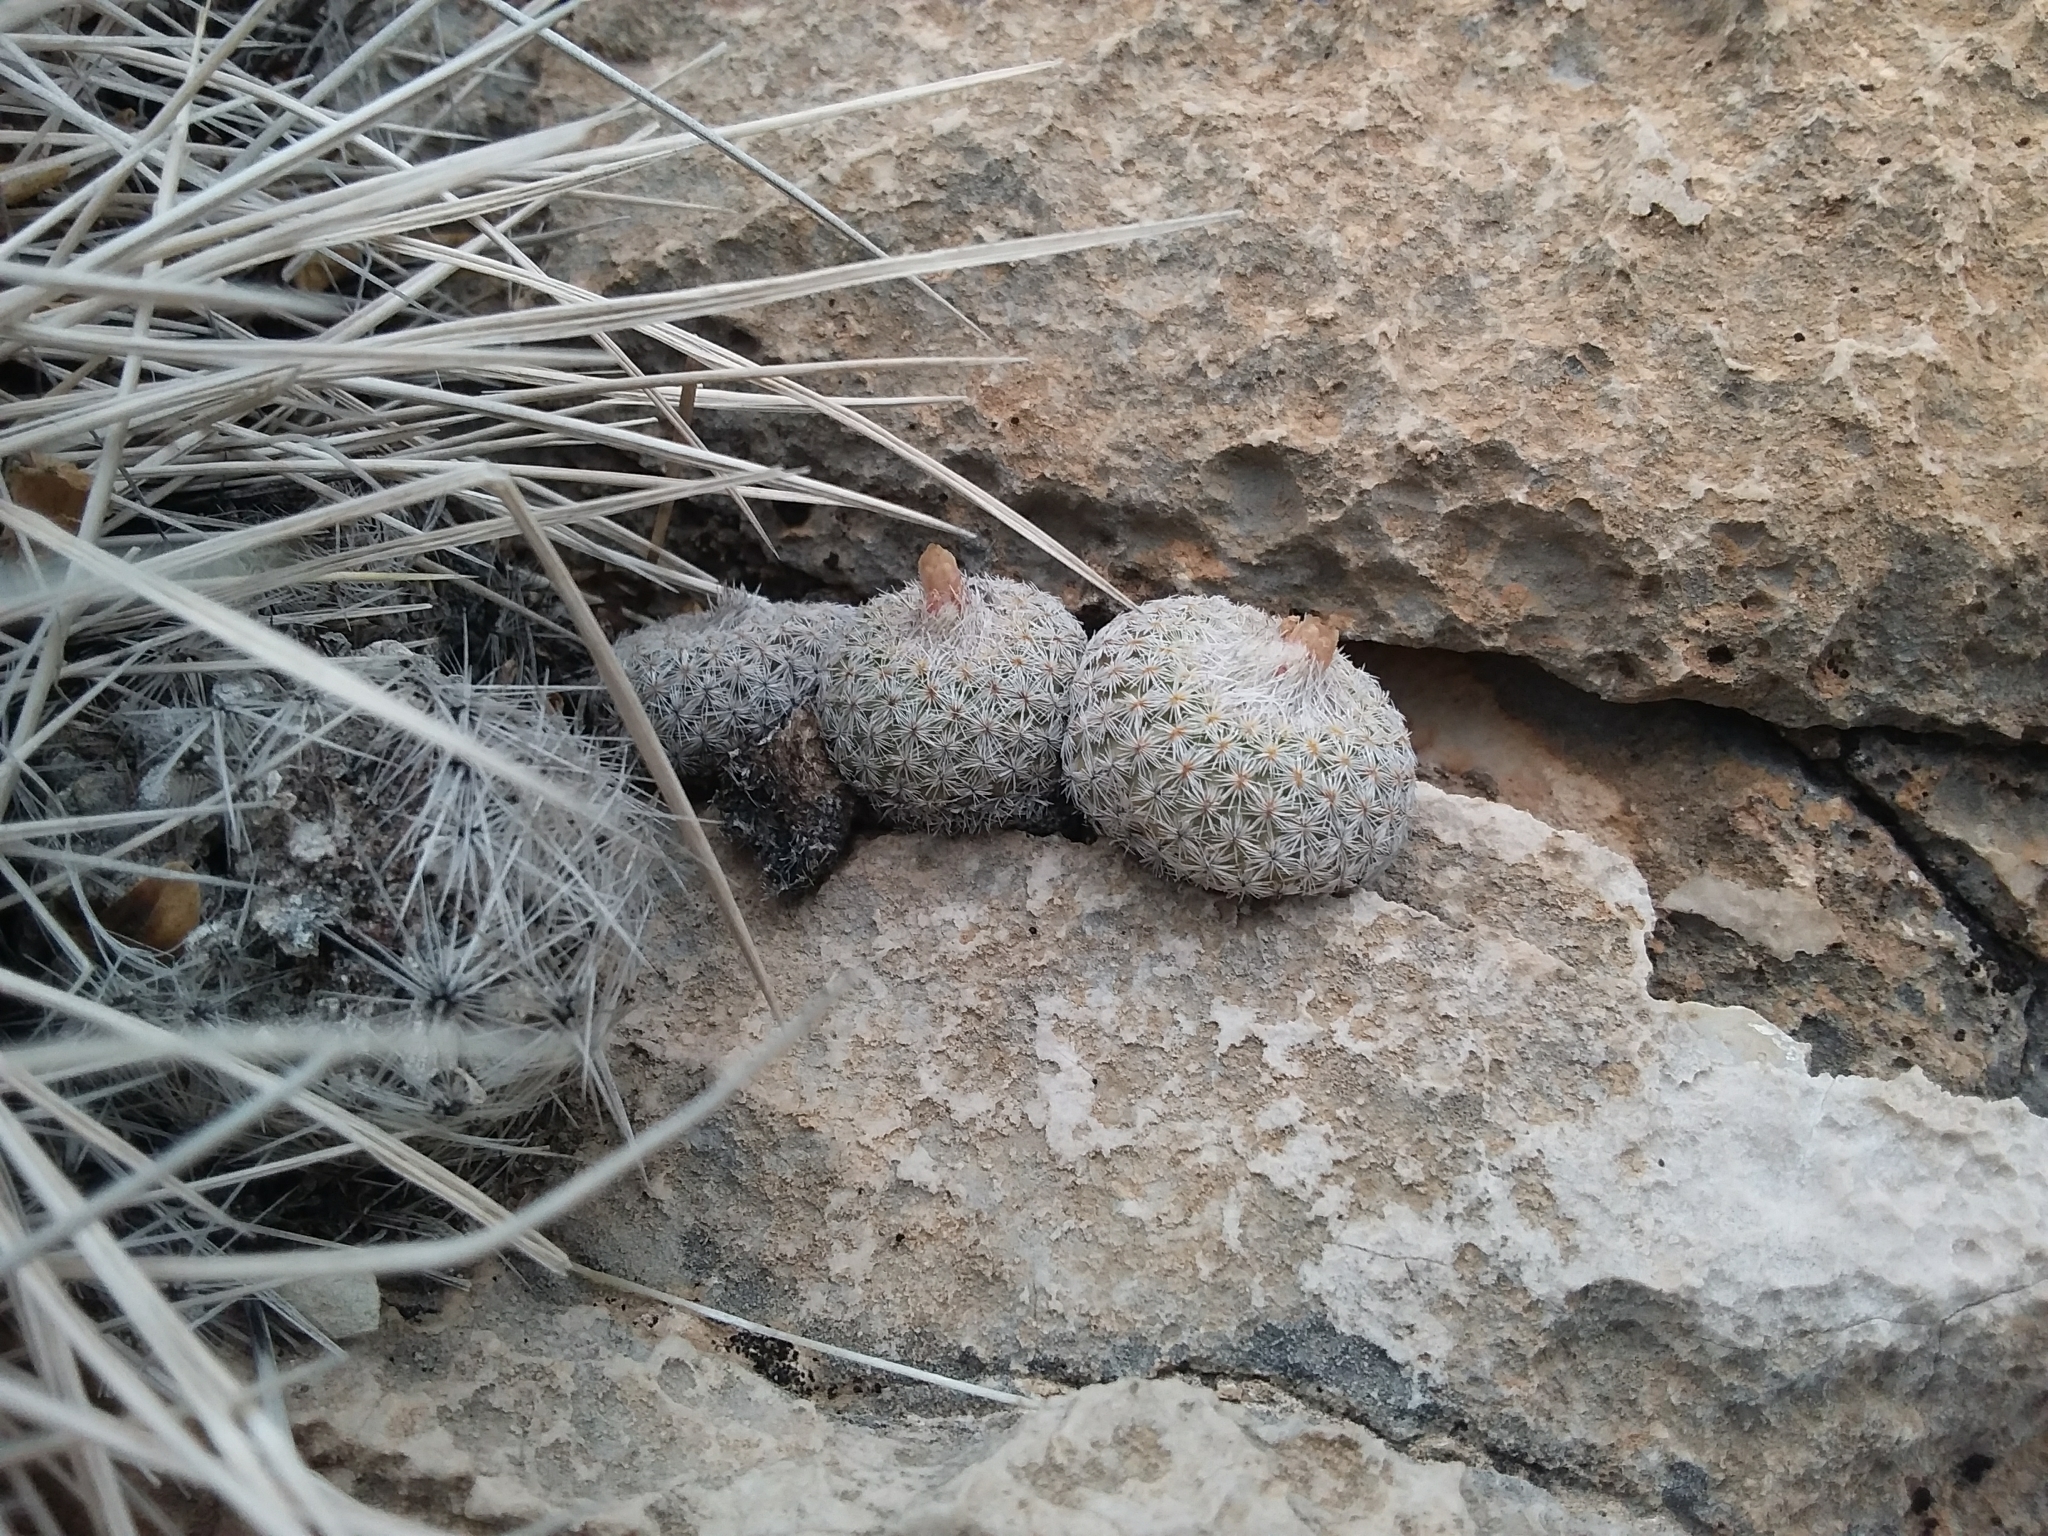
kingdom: Plantae
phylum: Tracheophyta
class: Magnoliopsida
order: Caryophyllales
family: Cactaceae
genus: Epithelantha
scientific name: Epithelantha micromeris
